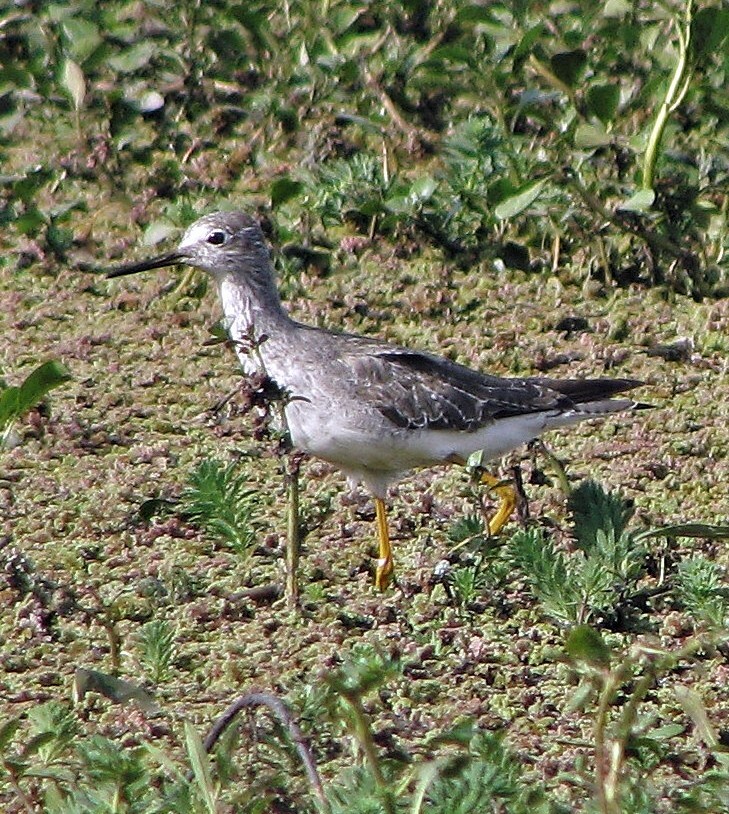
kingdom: Animalia
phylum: Chordata
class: Aves
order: Charadriiformes
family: Scolopacidae
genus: Tringa
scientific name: Tringa flavipes
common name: Lesser yellowlegs
